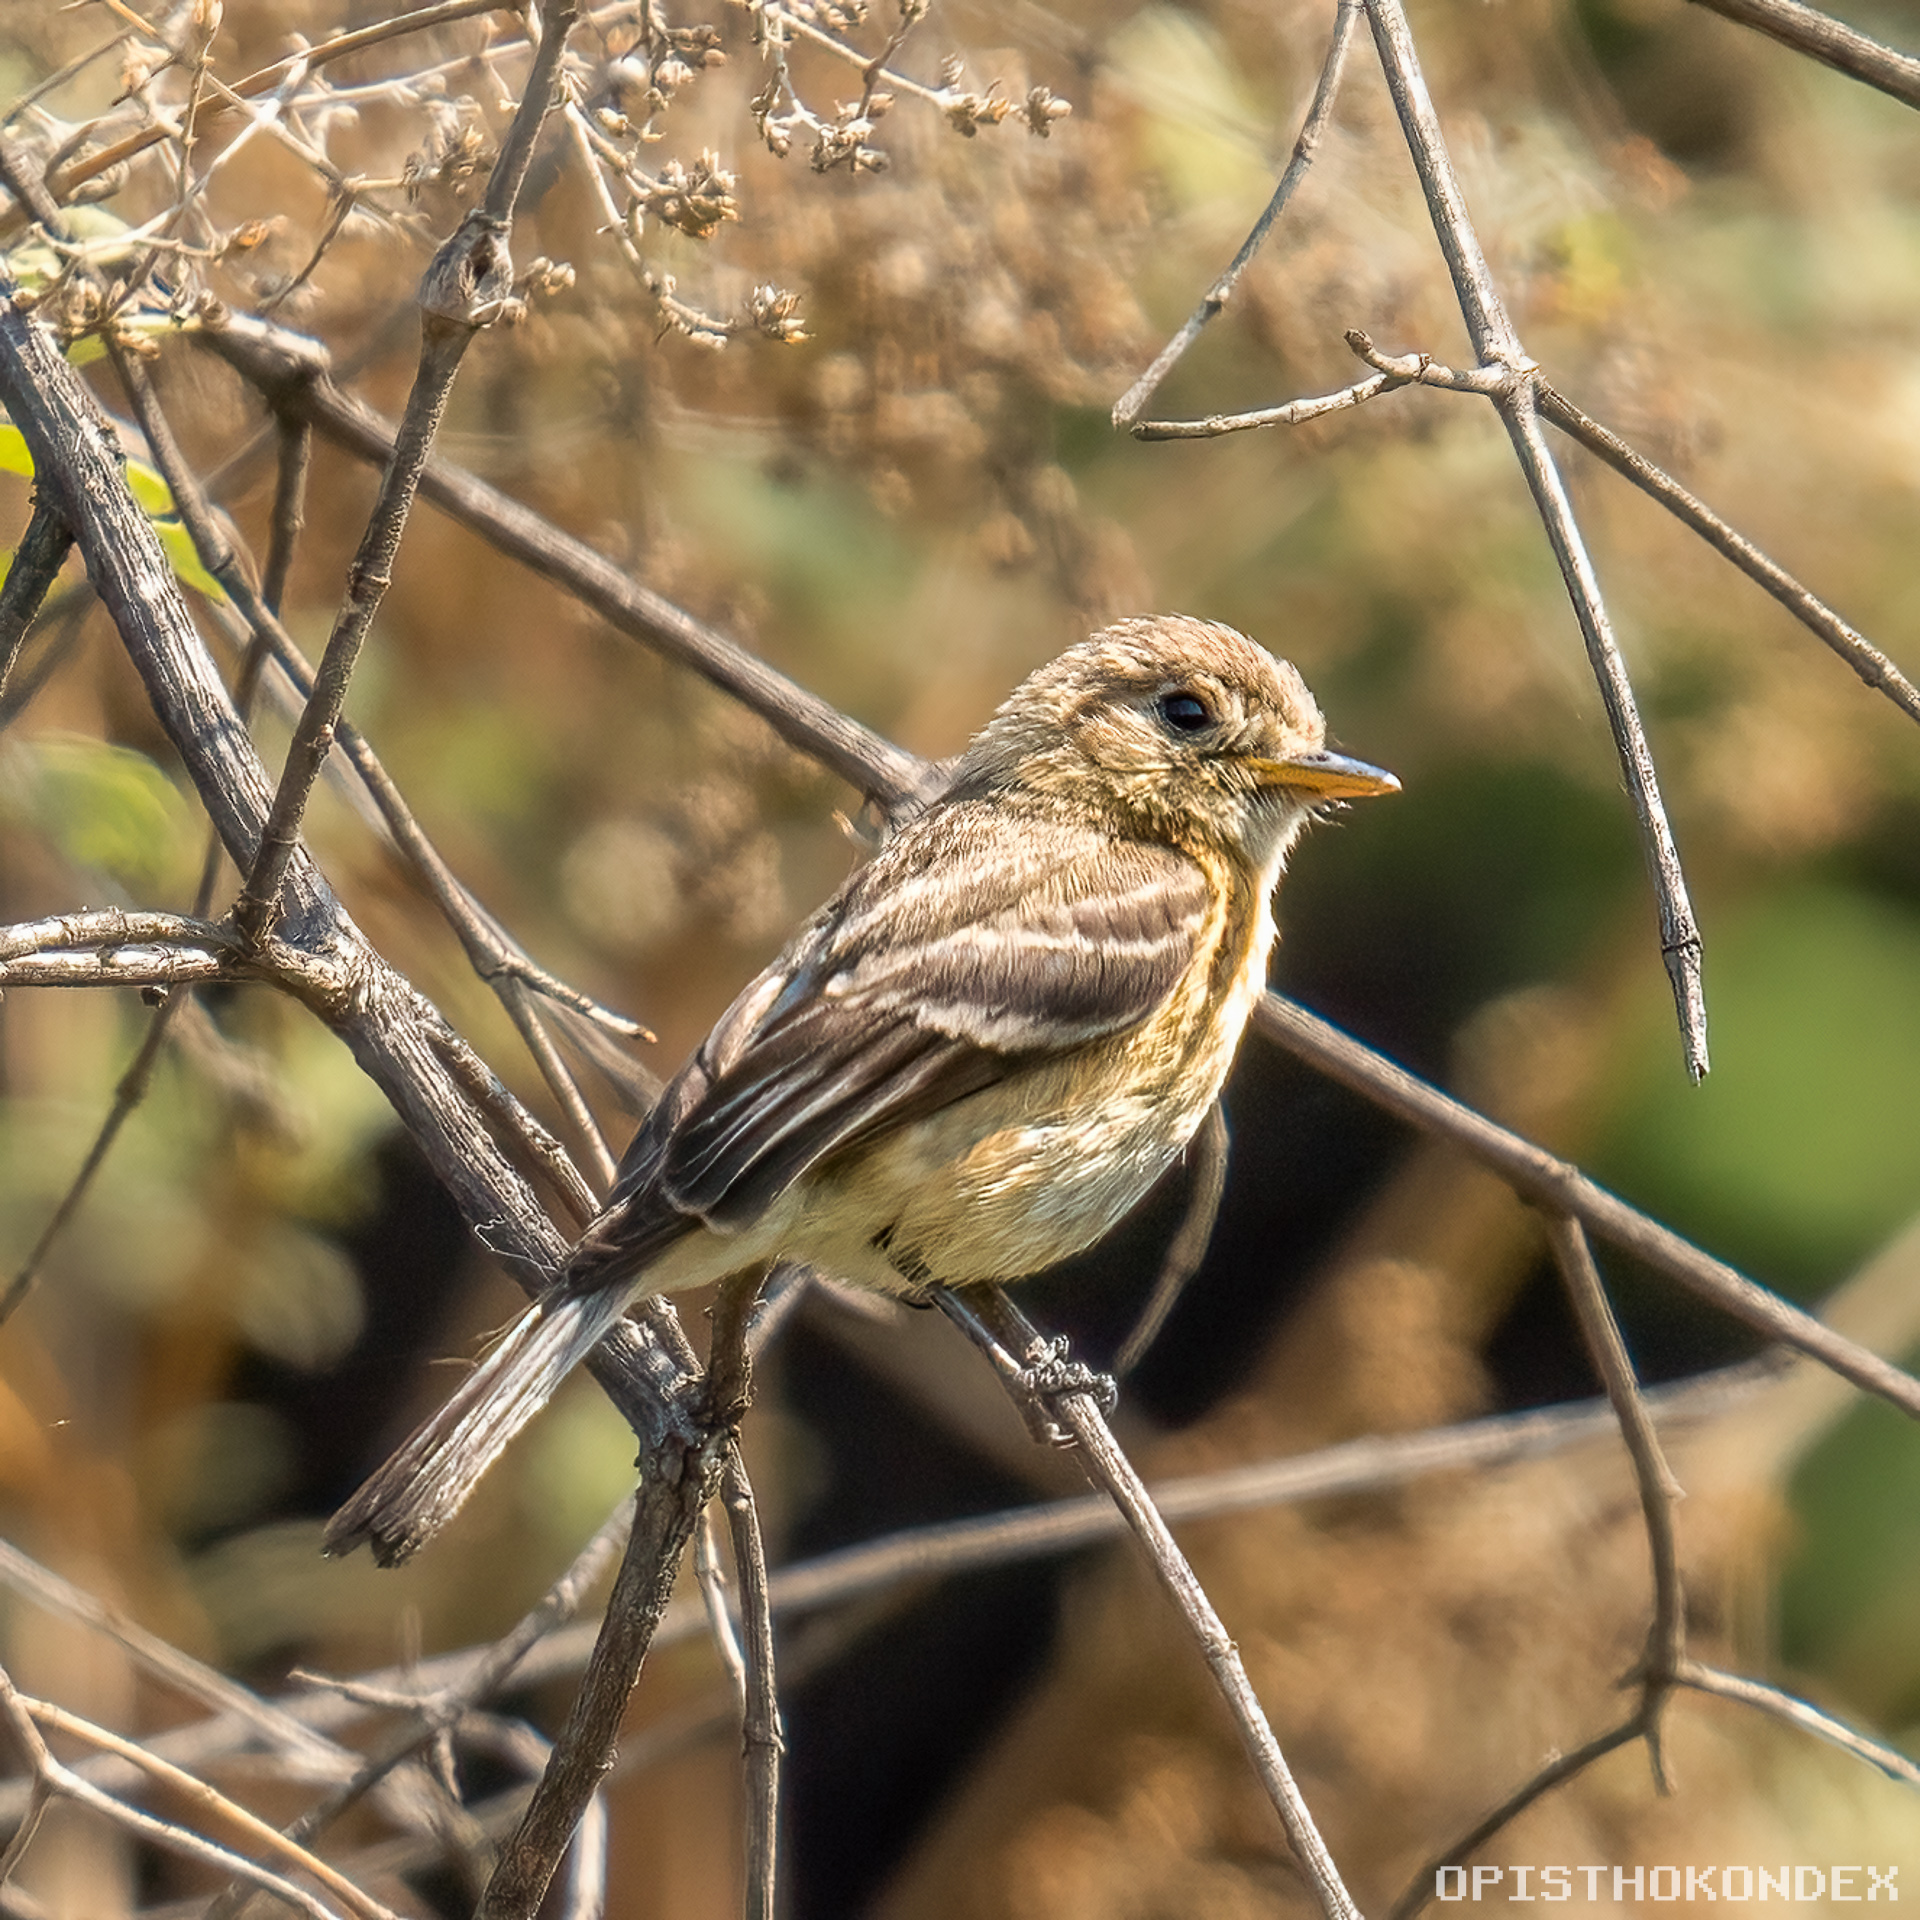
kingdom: Animalia
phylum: Chordata
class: Aves
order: Passeriformes
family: Tyrannidae
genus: Empidonax
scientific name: Empidonax fulvifrons
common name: Buff-breasted flycatcher
